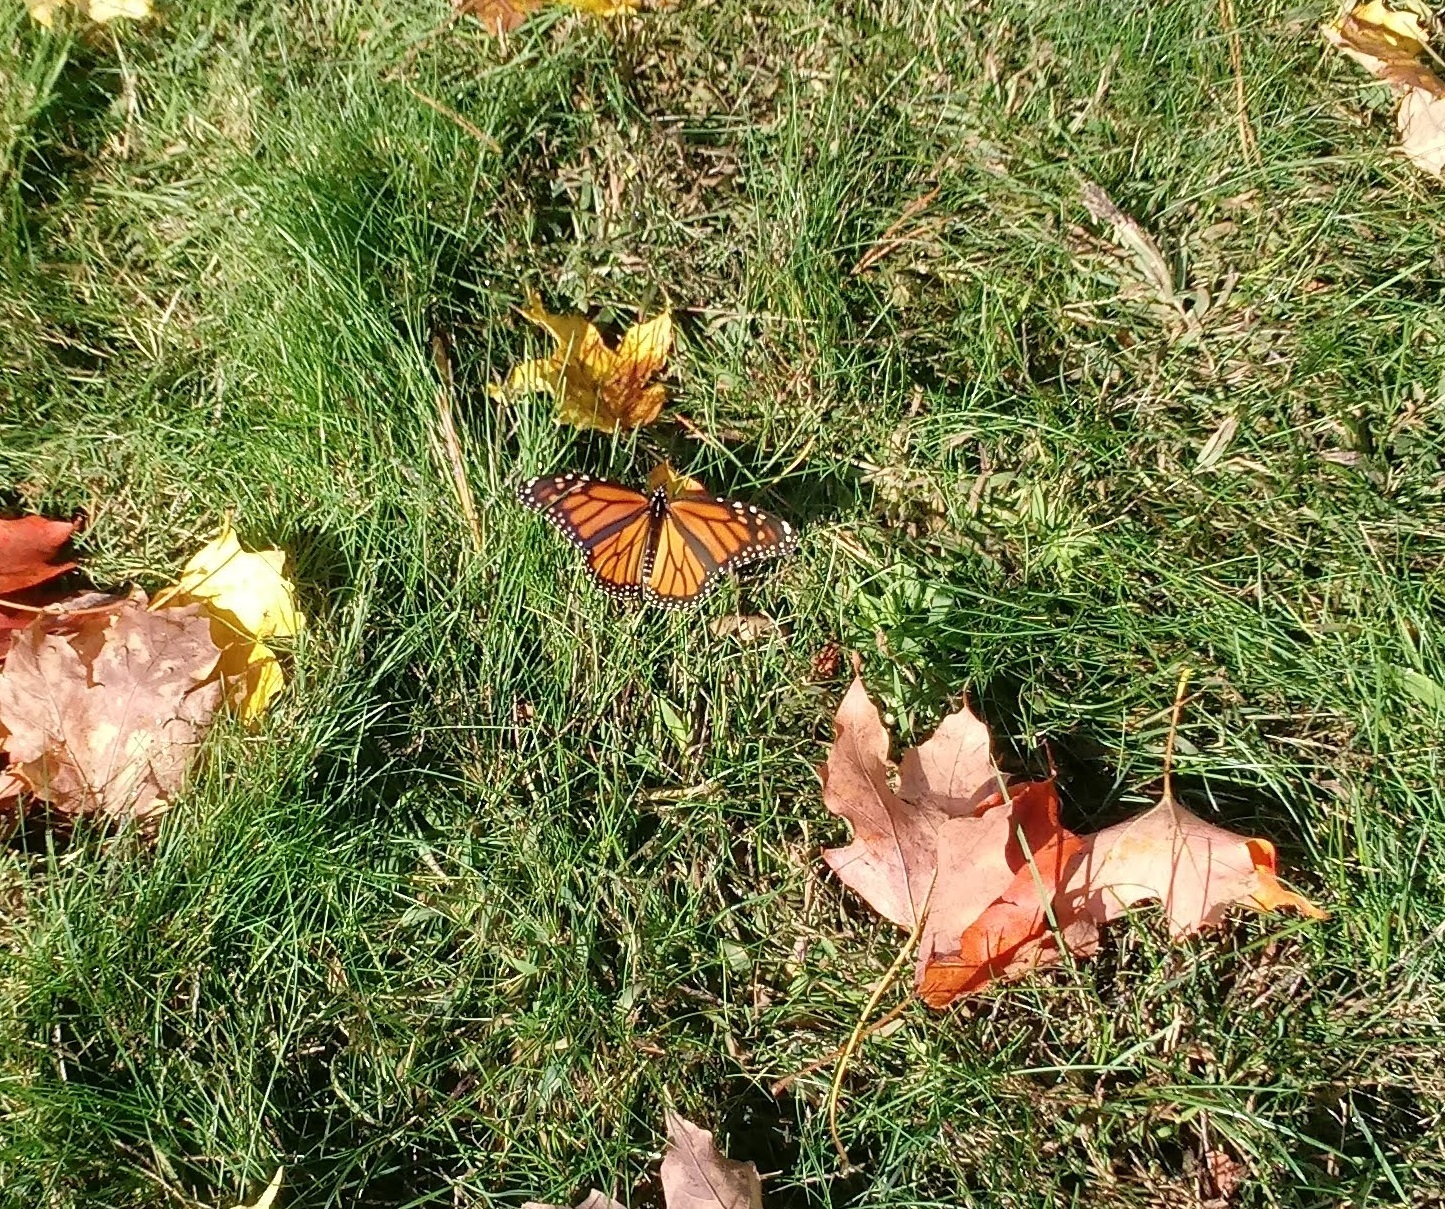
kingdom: Animalia
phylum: Arthropoda
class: Insecta
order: Lepidoptera
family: Nymphalidae
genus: Danaus
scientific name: Danaus plexippus
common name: Monarch
